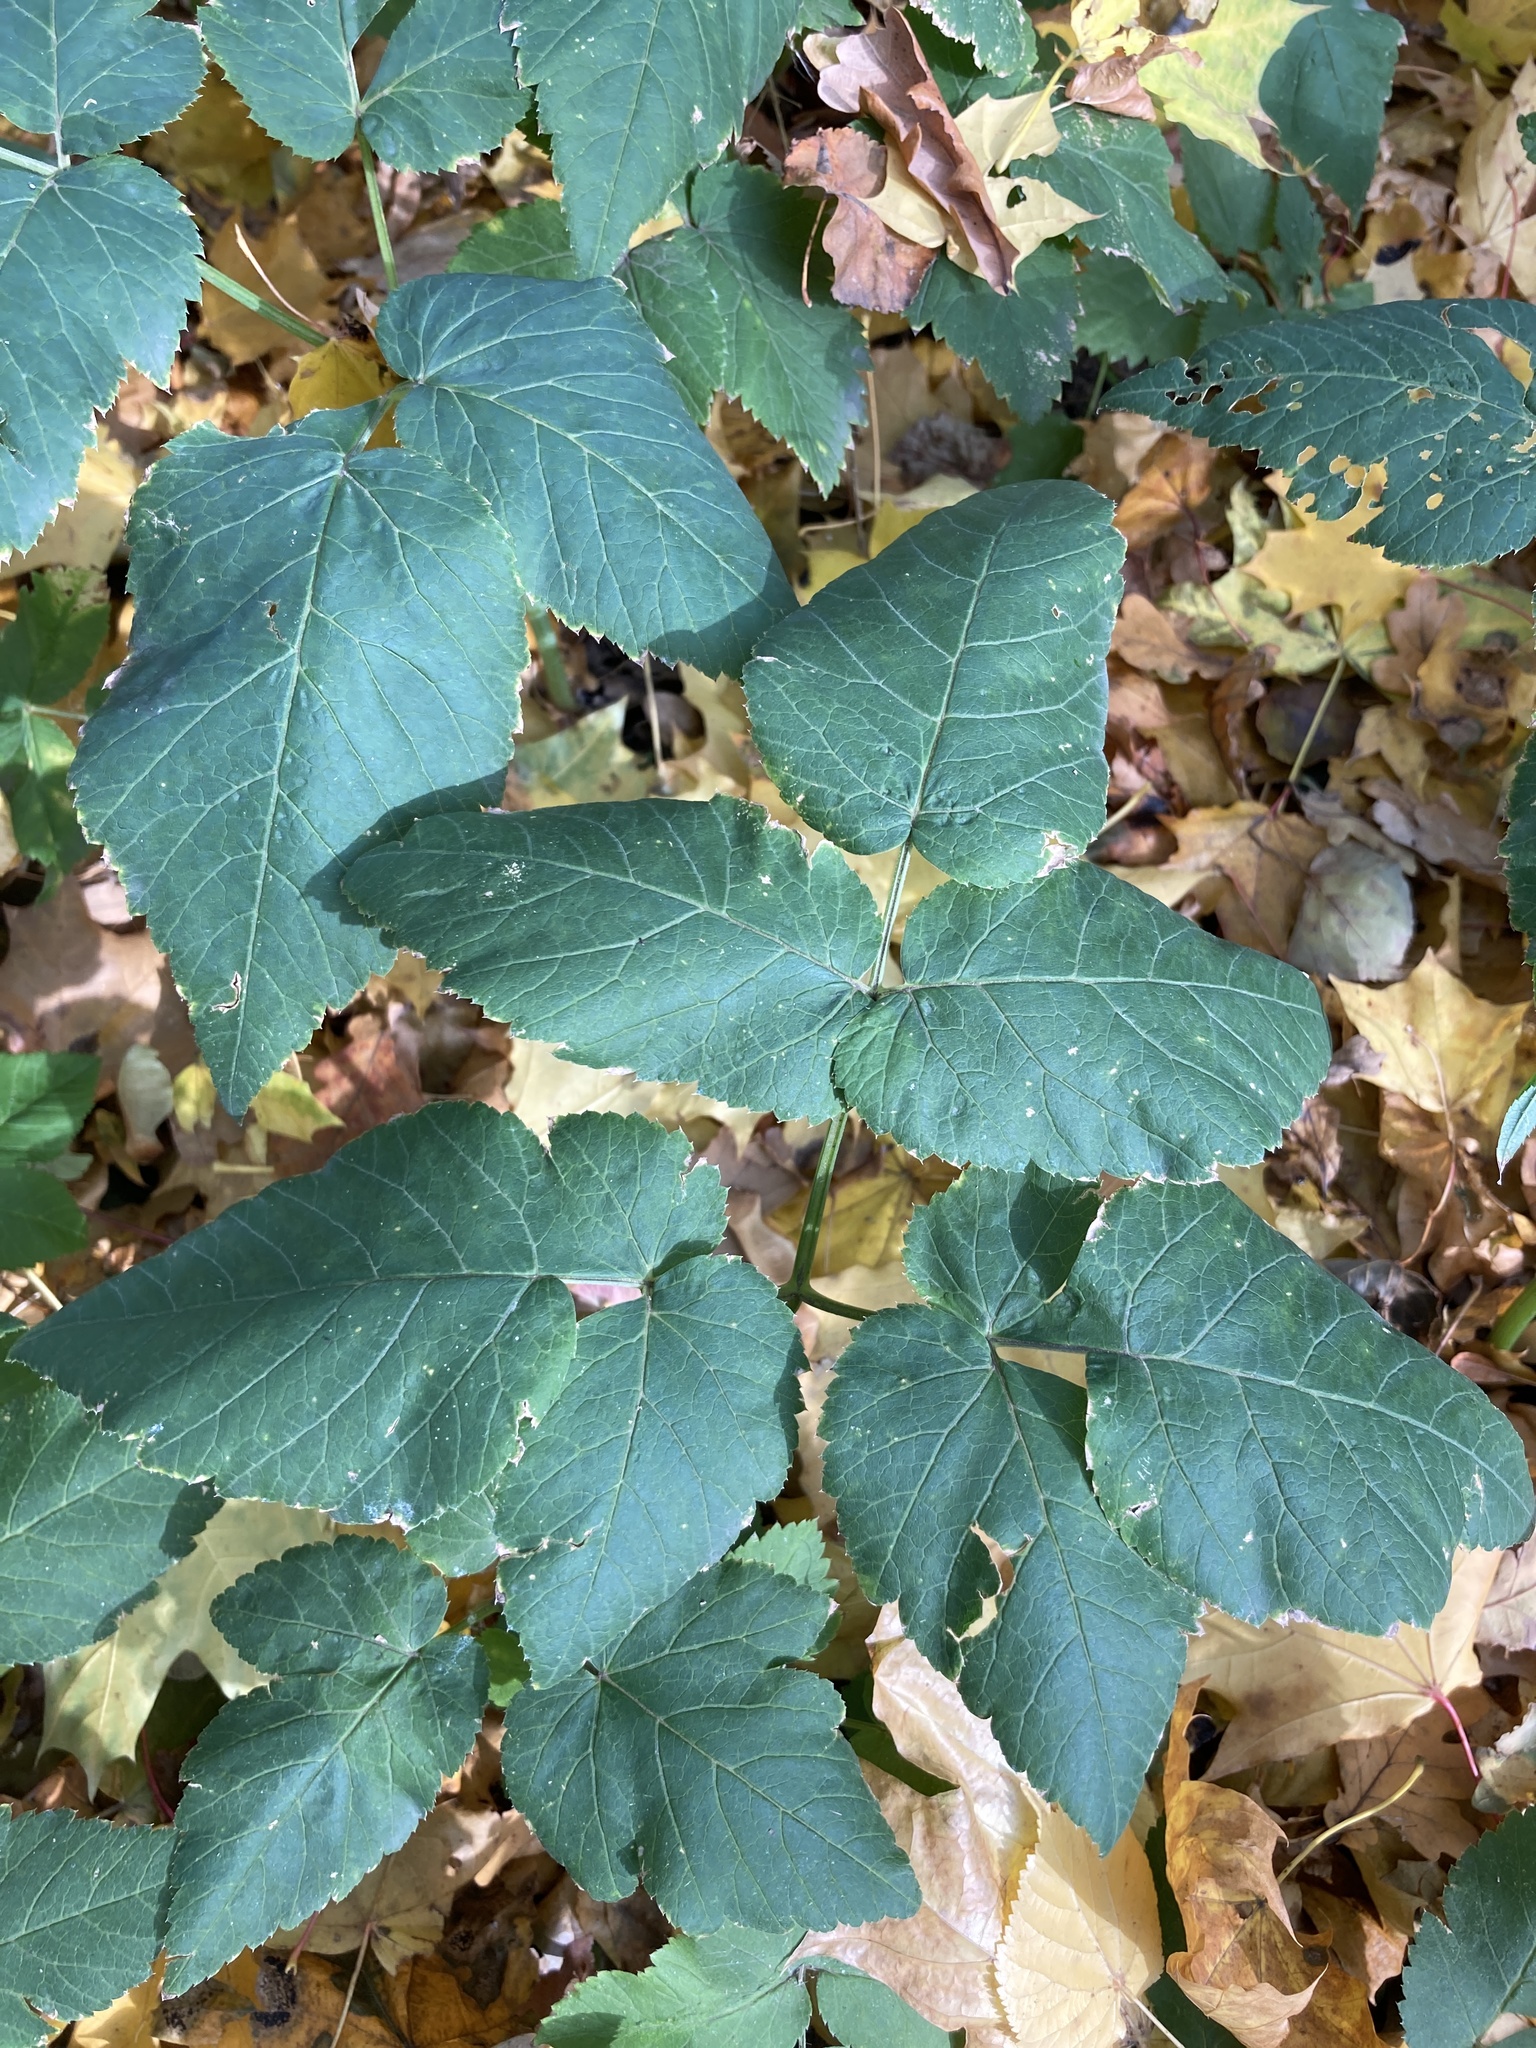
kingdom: Plantae
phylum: Tracheophyta
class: Magnoliopsida
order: Apiales
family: Apiaceae
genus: Aegopodium
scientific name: Aegopodium podagraria
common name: Ground-elder
